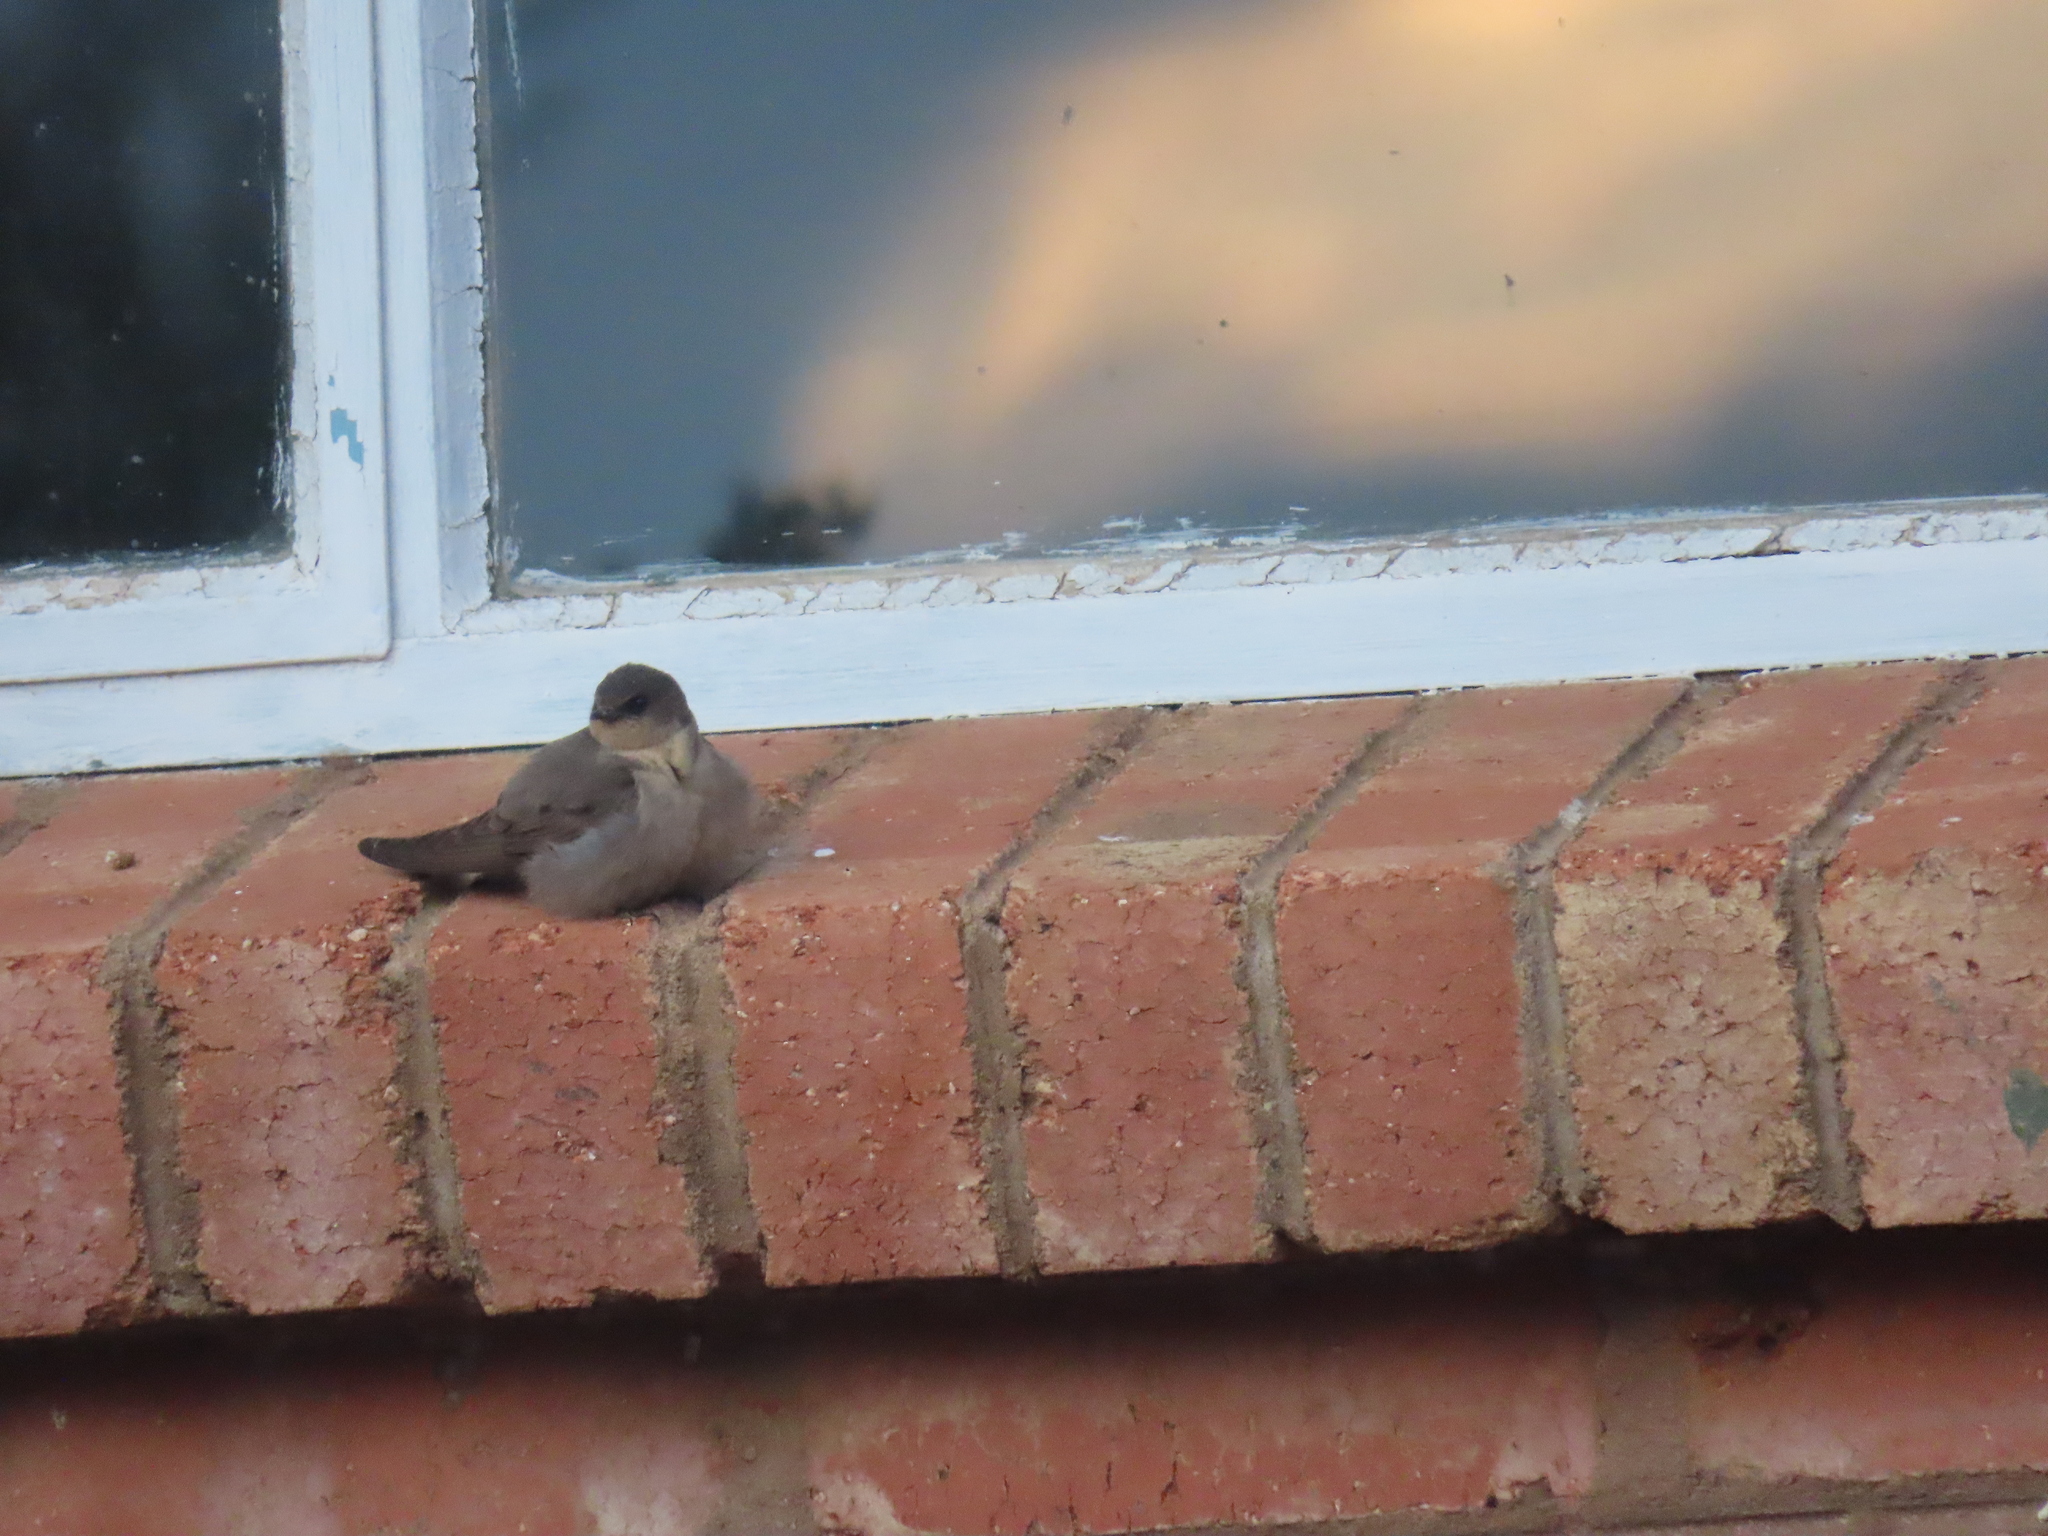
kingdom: Animalia
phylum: Chordata
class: Aves
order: Passeriformes
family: Hirundinidae
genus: Ptyonoprogne
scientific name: Ptyonoprogne fuligula
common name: Rock martin
